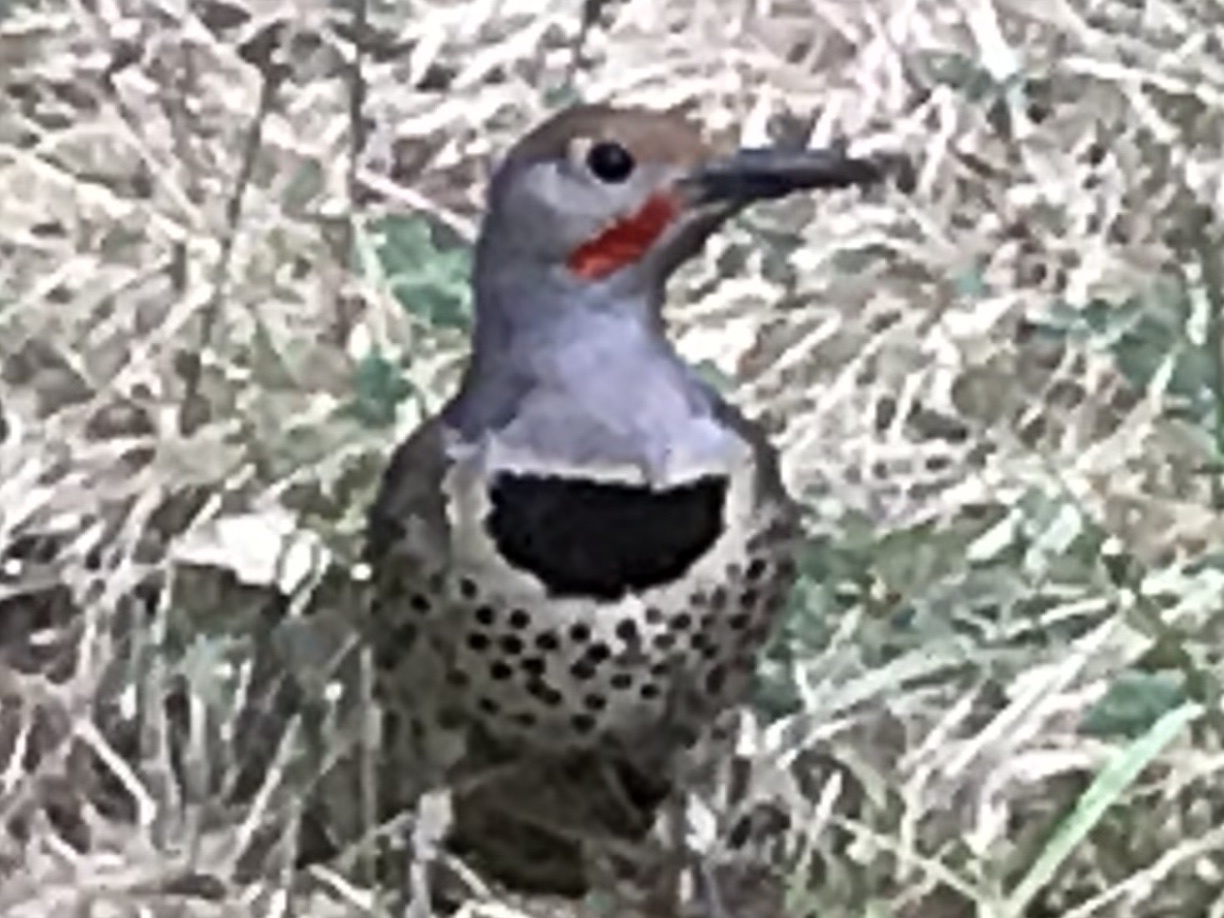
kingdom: Animalia
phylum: Chordata
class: Aves
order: Piciformes
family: Picidae
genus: Colaptes
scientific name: Colaptes auratus
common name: Northern flicker
